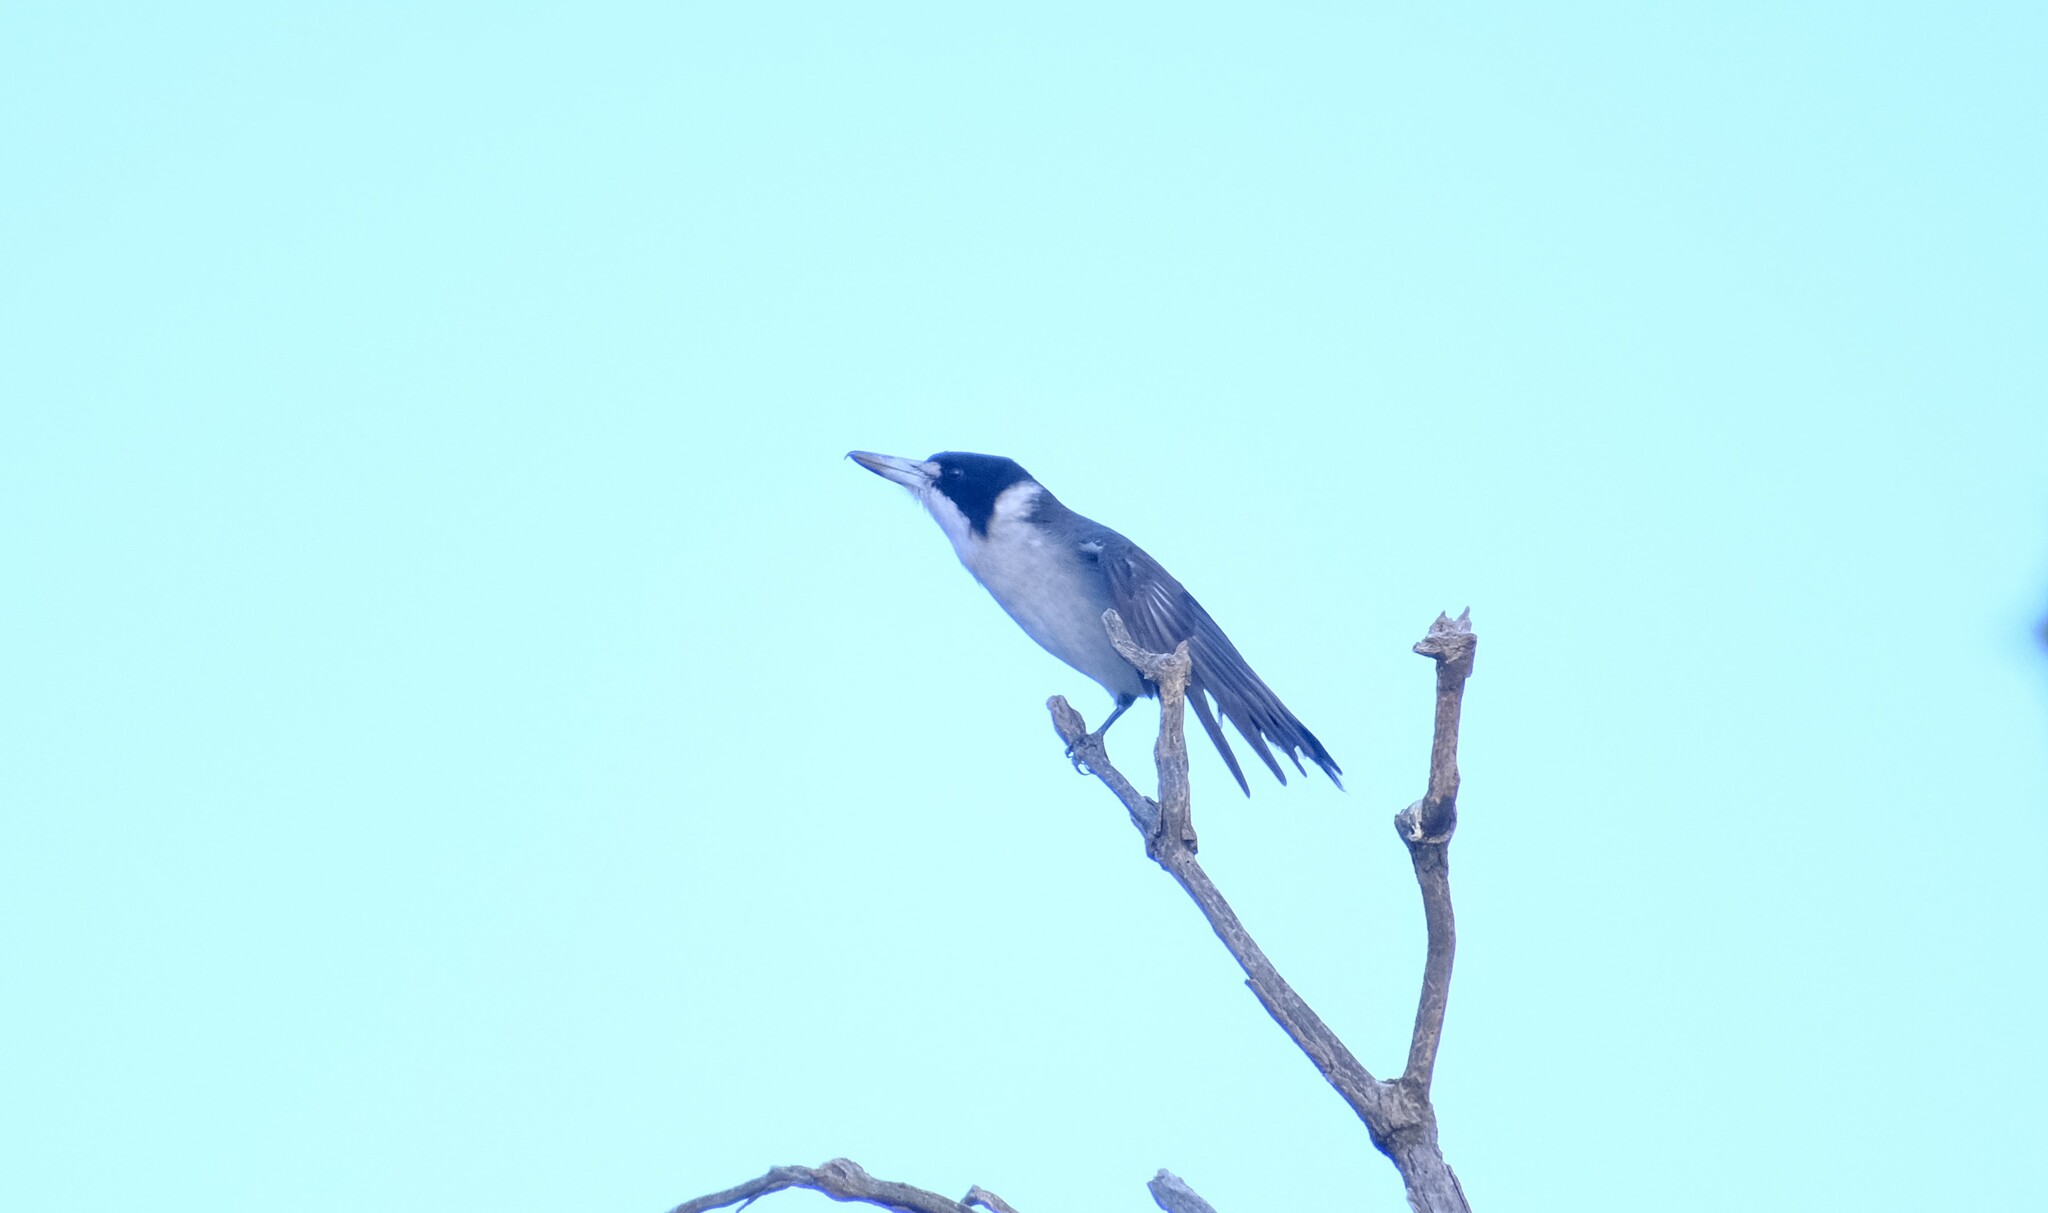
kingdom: Animalia
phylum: Chordata
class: Aves
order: Passeriformes
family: Cracticidae
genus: Cracticus
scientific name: Cracticus torquatus
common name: Grey butcherbird
